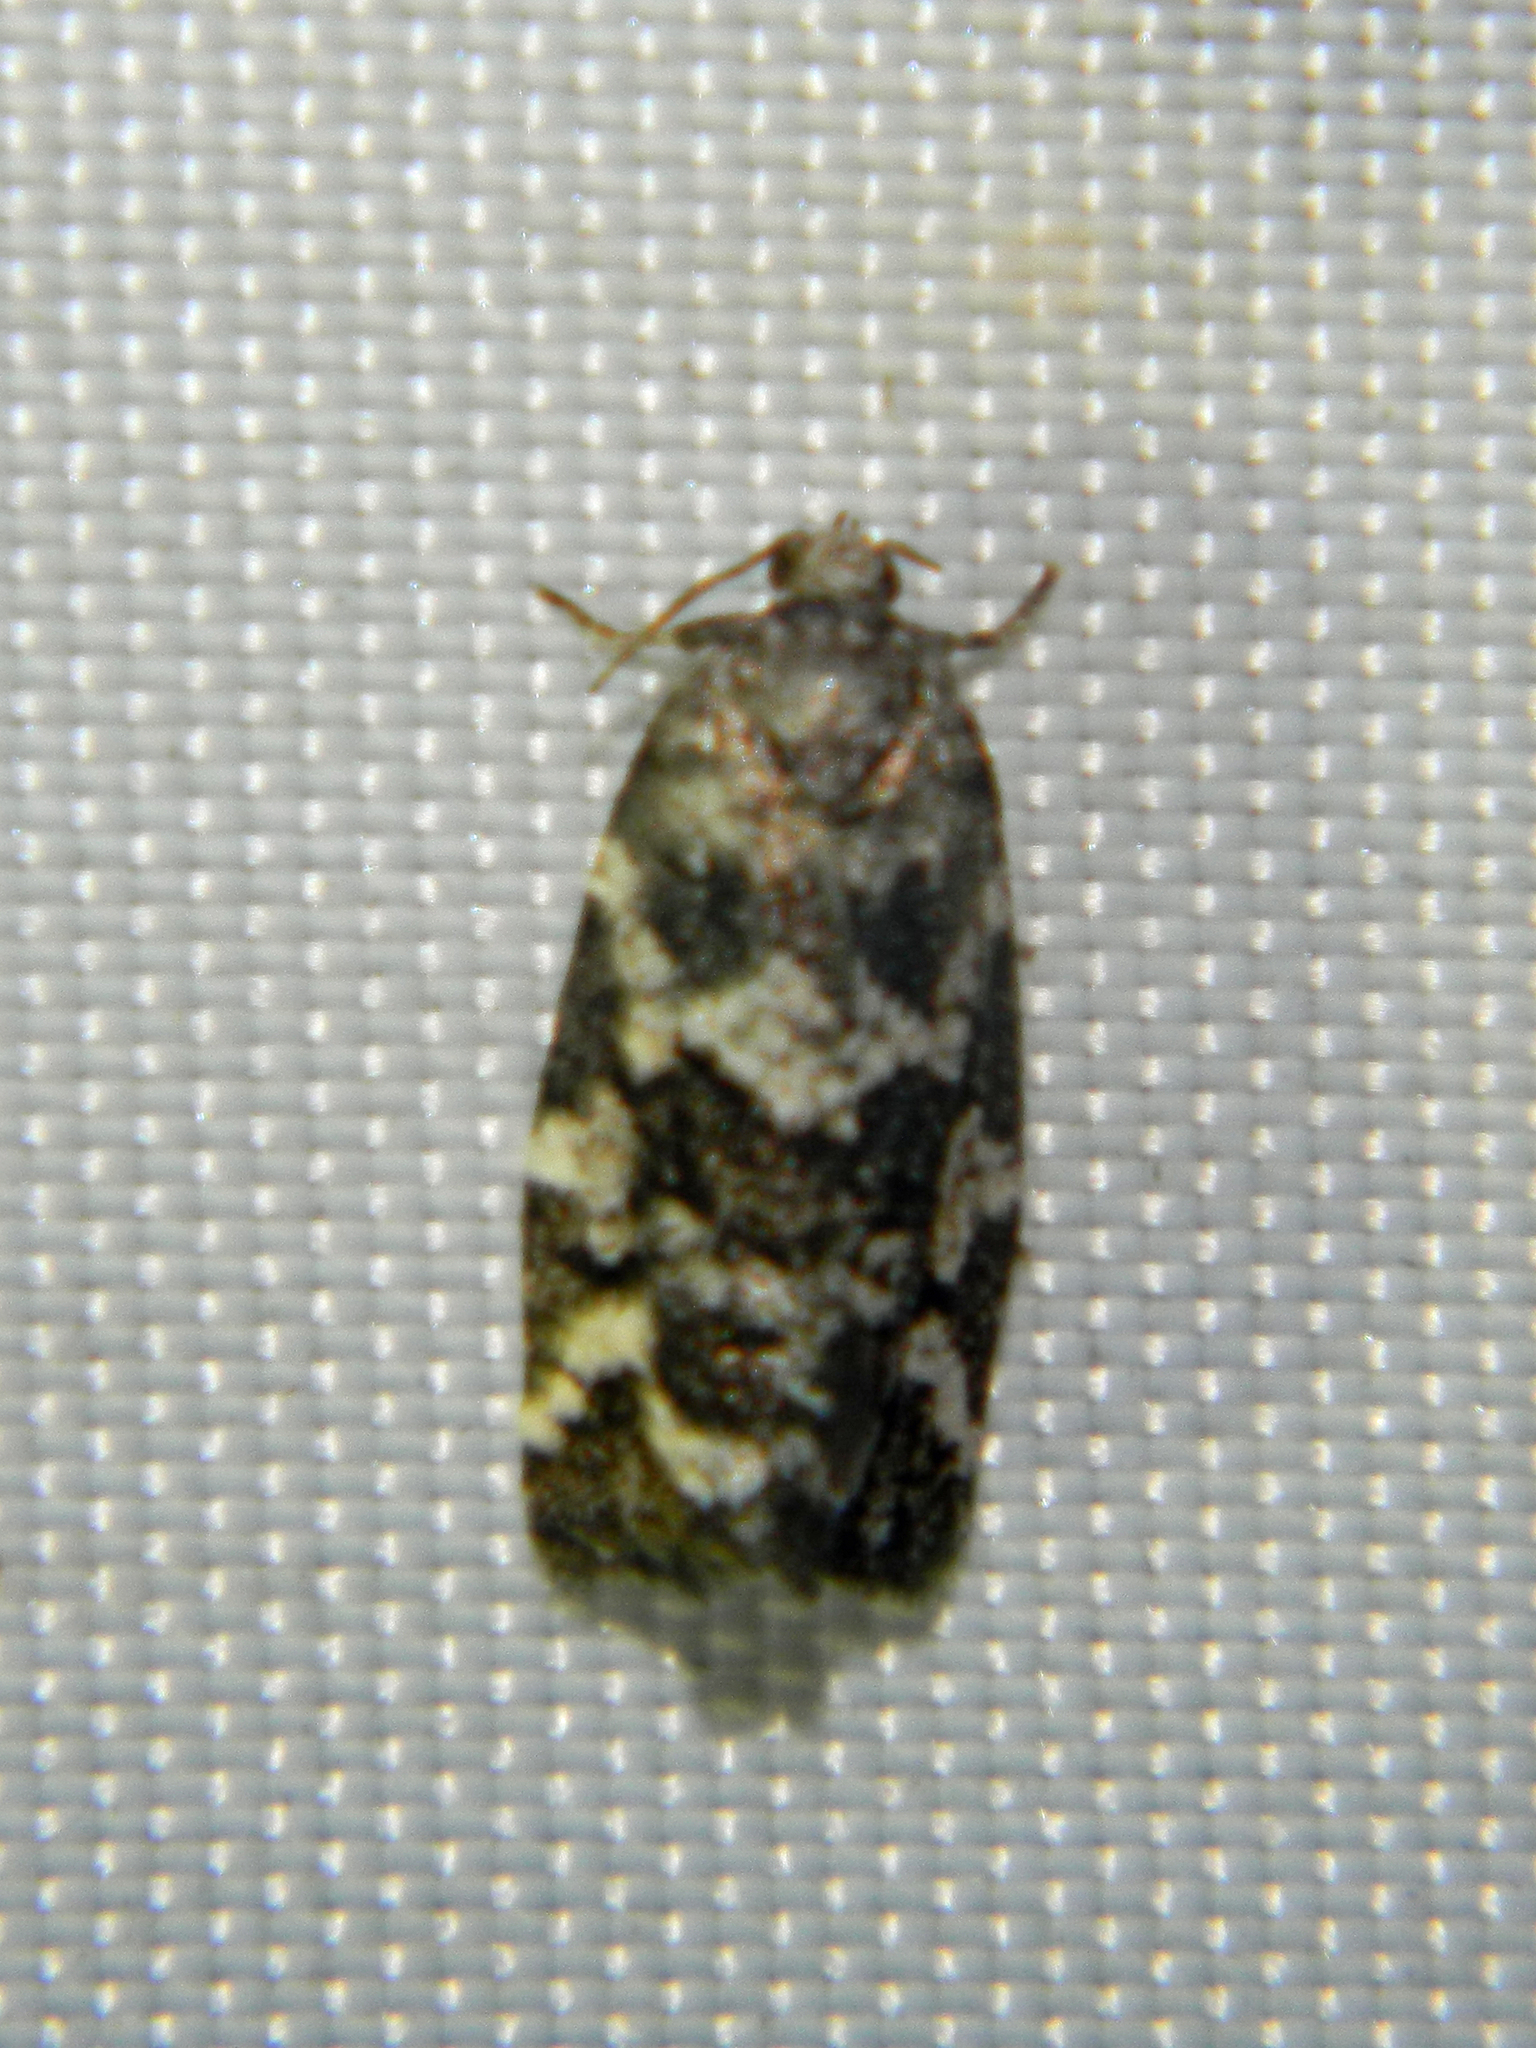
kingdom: Animalia
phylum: Arthropoda
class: Insecta
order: Lepidoptera
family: Tortricidae
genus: Archips
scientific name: Archips packardiana
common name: Spring spruce needle moth
